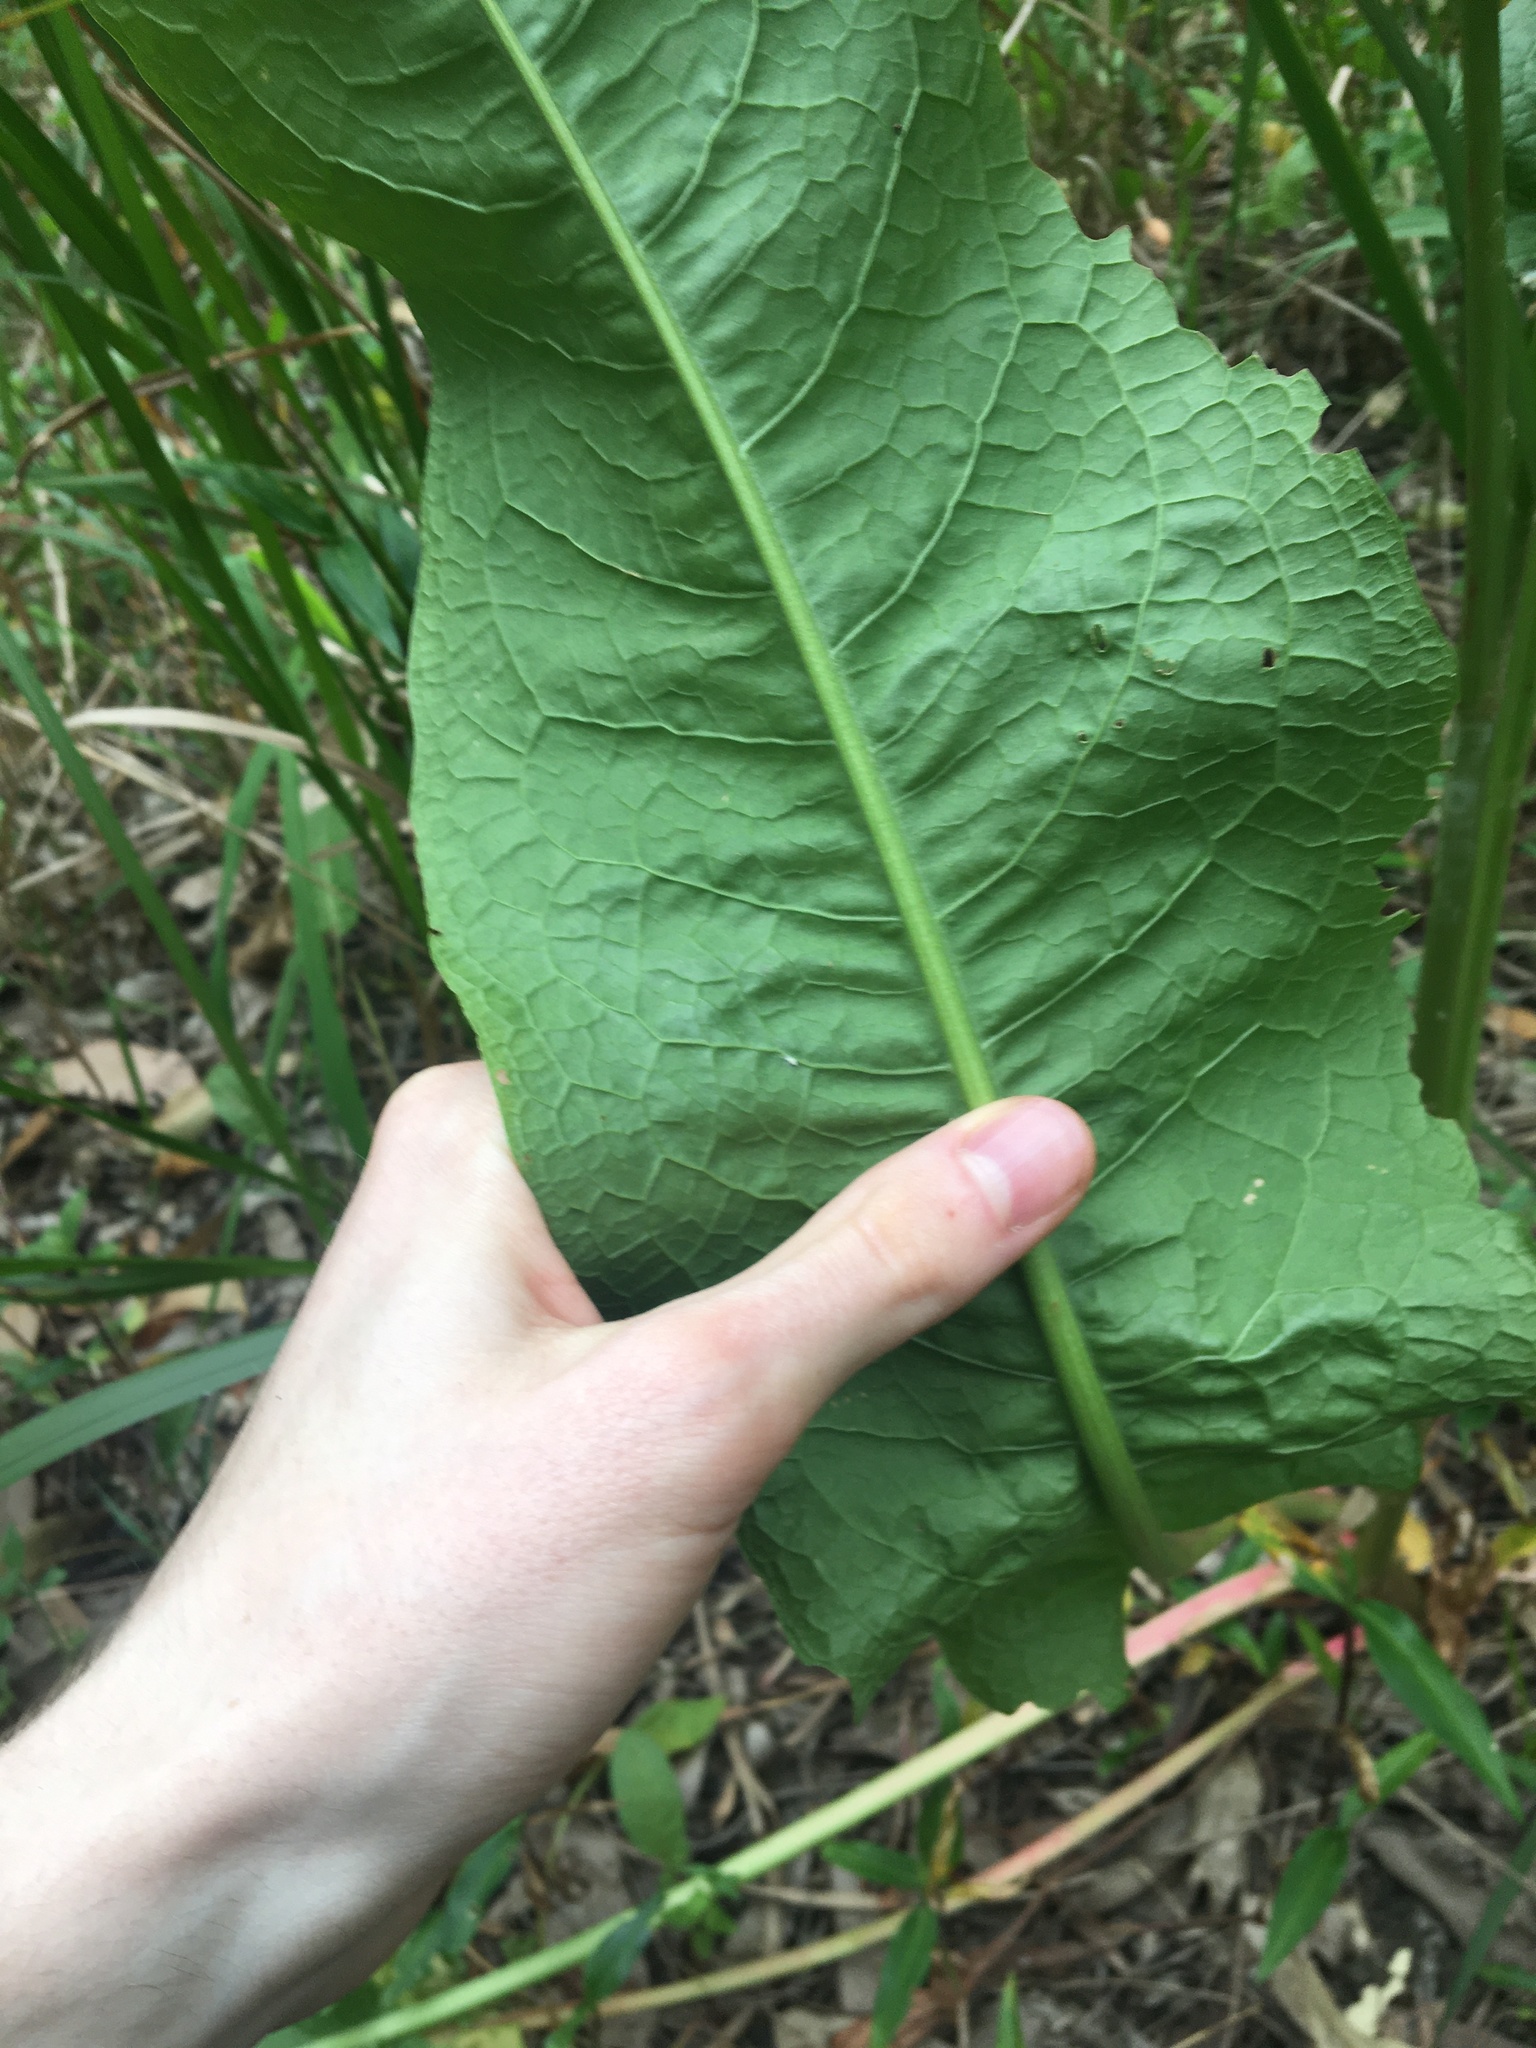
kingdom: Plantae
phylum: Tracheophyta
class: Magnoliopsida
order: Caryophyllales
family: Polygonaceae
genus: Rumex
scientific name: Rumex crispus
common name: Curled dock
